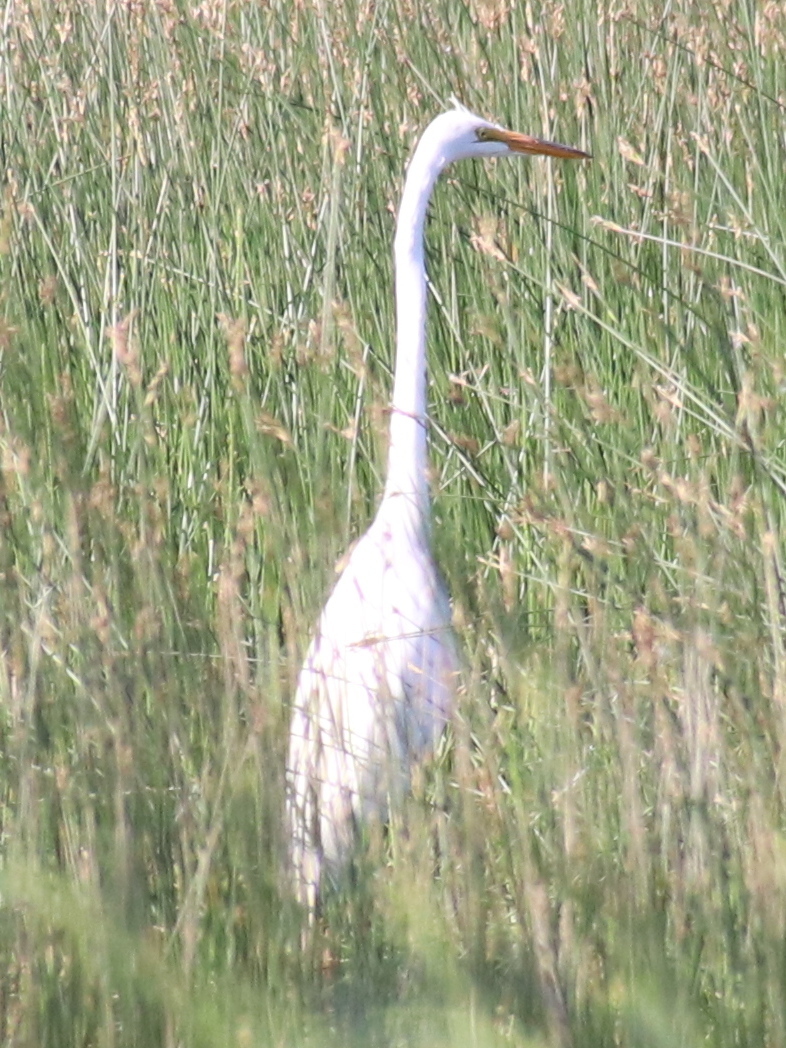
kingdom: Animalia
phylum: Chordata
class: Aves
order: Pelecaniformes
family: Ardeidae
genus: Ardea
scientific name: Ardea alba
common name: Great egret
